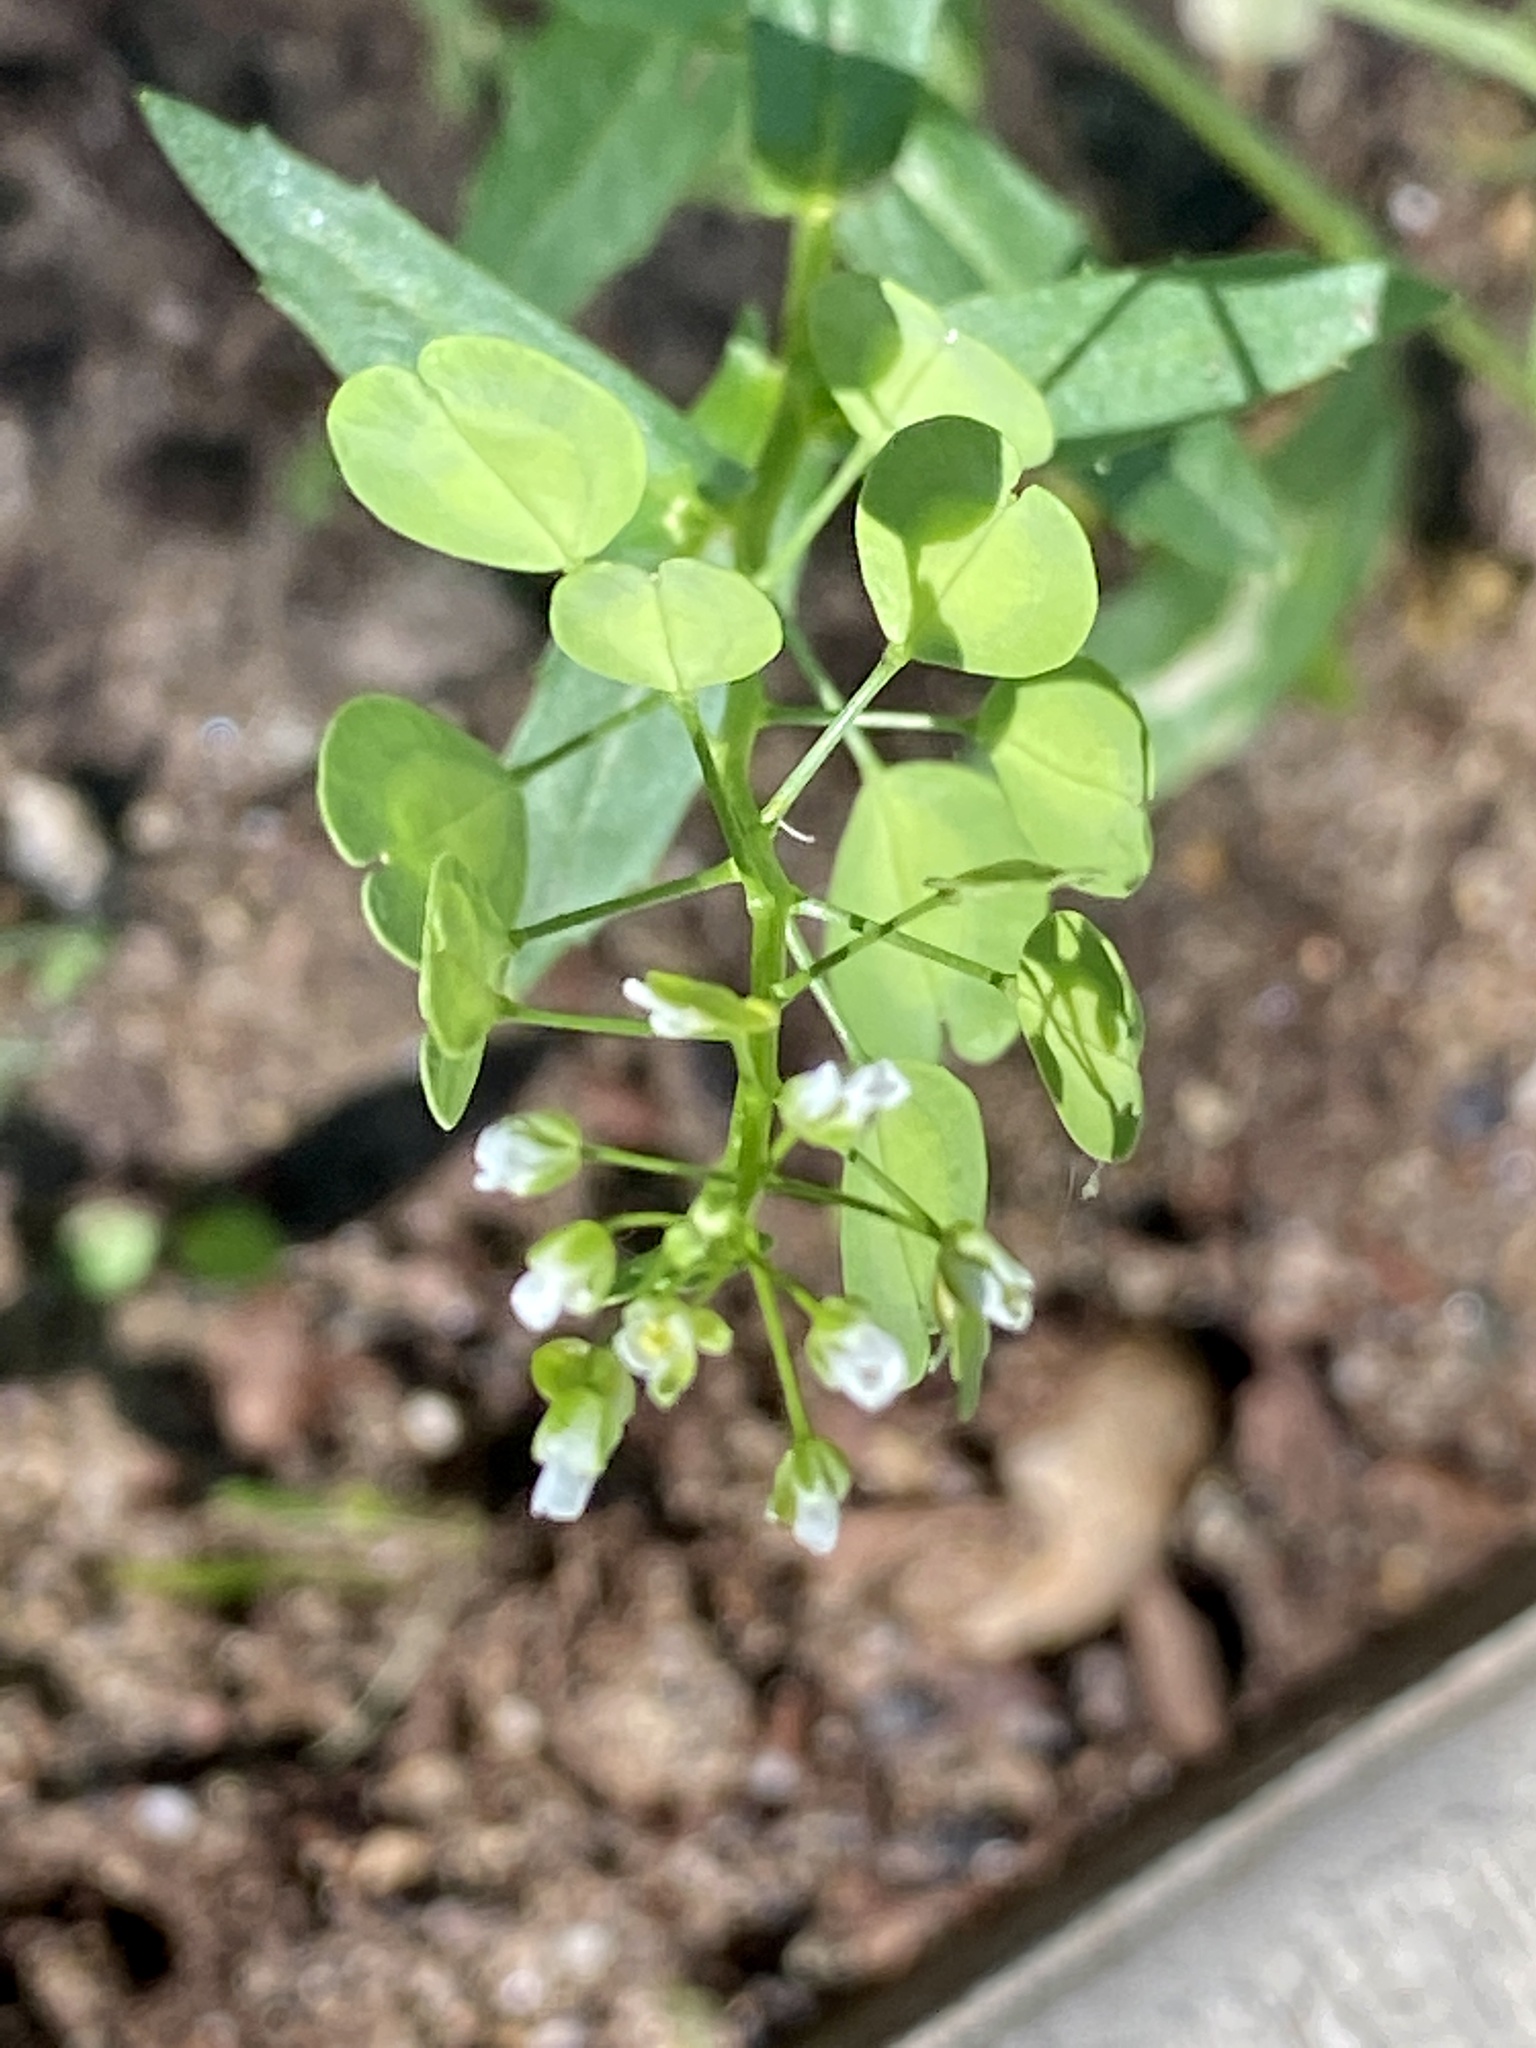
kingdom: Plantae
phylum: Tracheophyta
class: Magnoliopsida
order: Brassicales
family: Brassicaceae
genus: Thlaspi
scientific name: Thlaspi arvense
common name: Field pennycress
